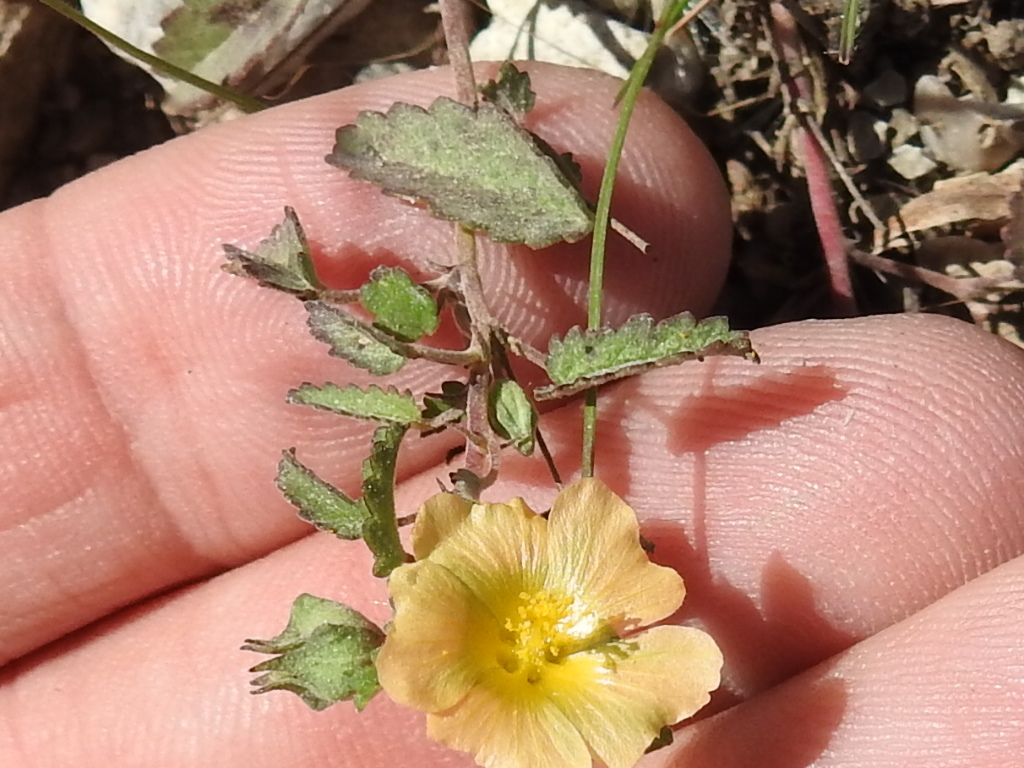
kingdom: Plantae
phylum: Tracheophyta
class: Magnoliopsida
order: Malvales
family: Malvaceae
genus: Sida
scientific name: Sida abutilifolia
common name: Spreading fanpetals
